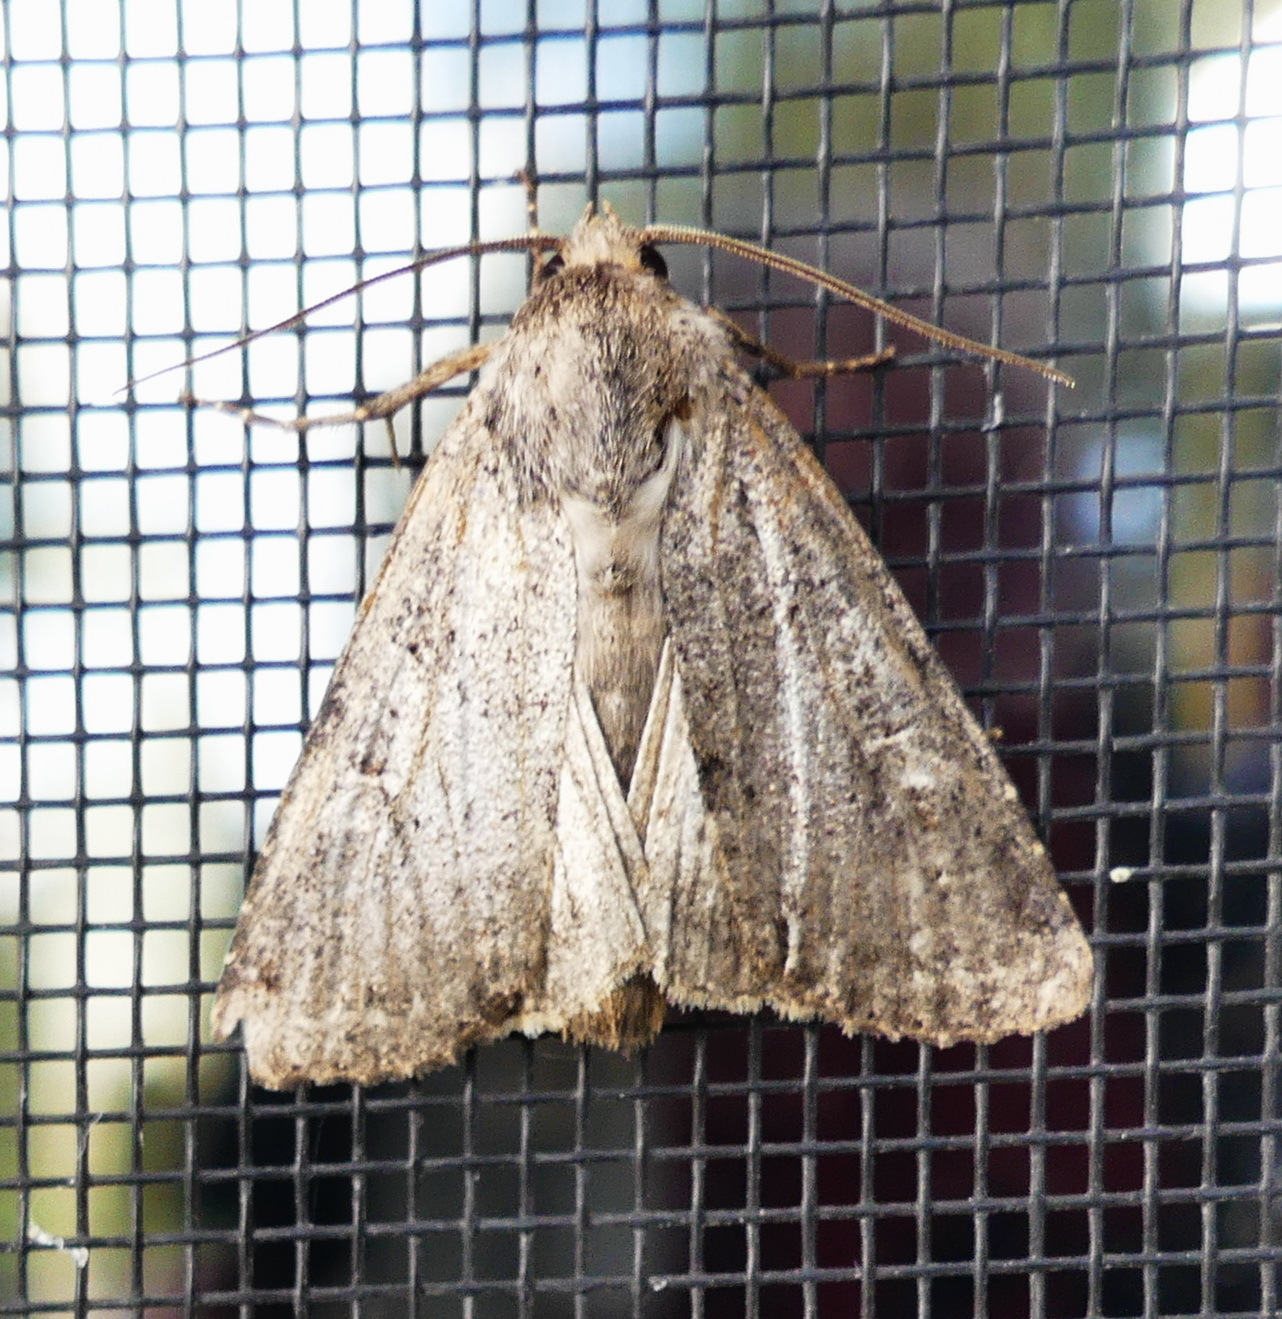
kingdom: Animalia
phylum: Arthropoda
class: Insecta
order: Lepidoptera
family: Noctuidae
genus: Apamea
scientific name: Apamea devastator
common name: Glassy cutworm
